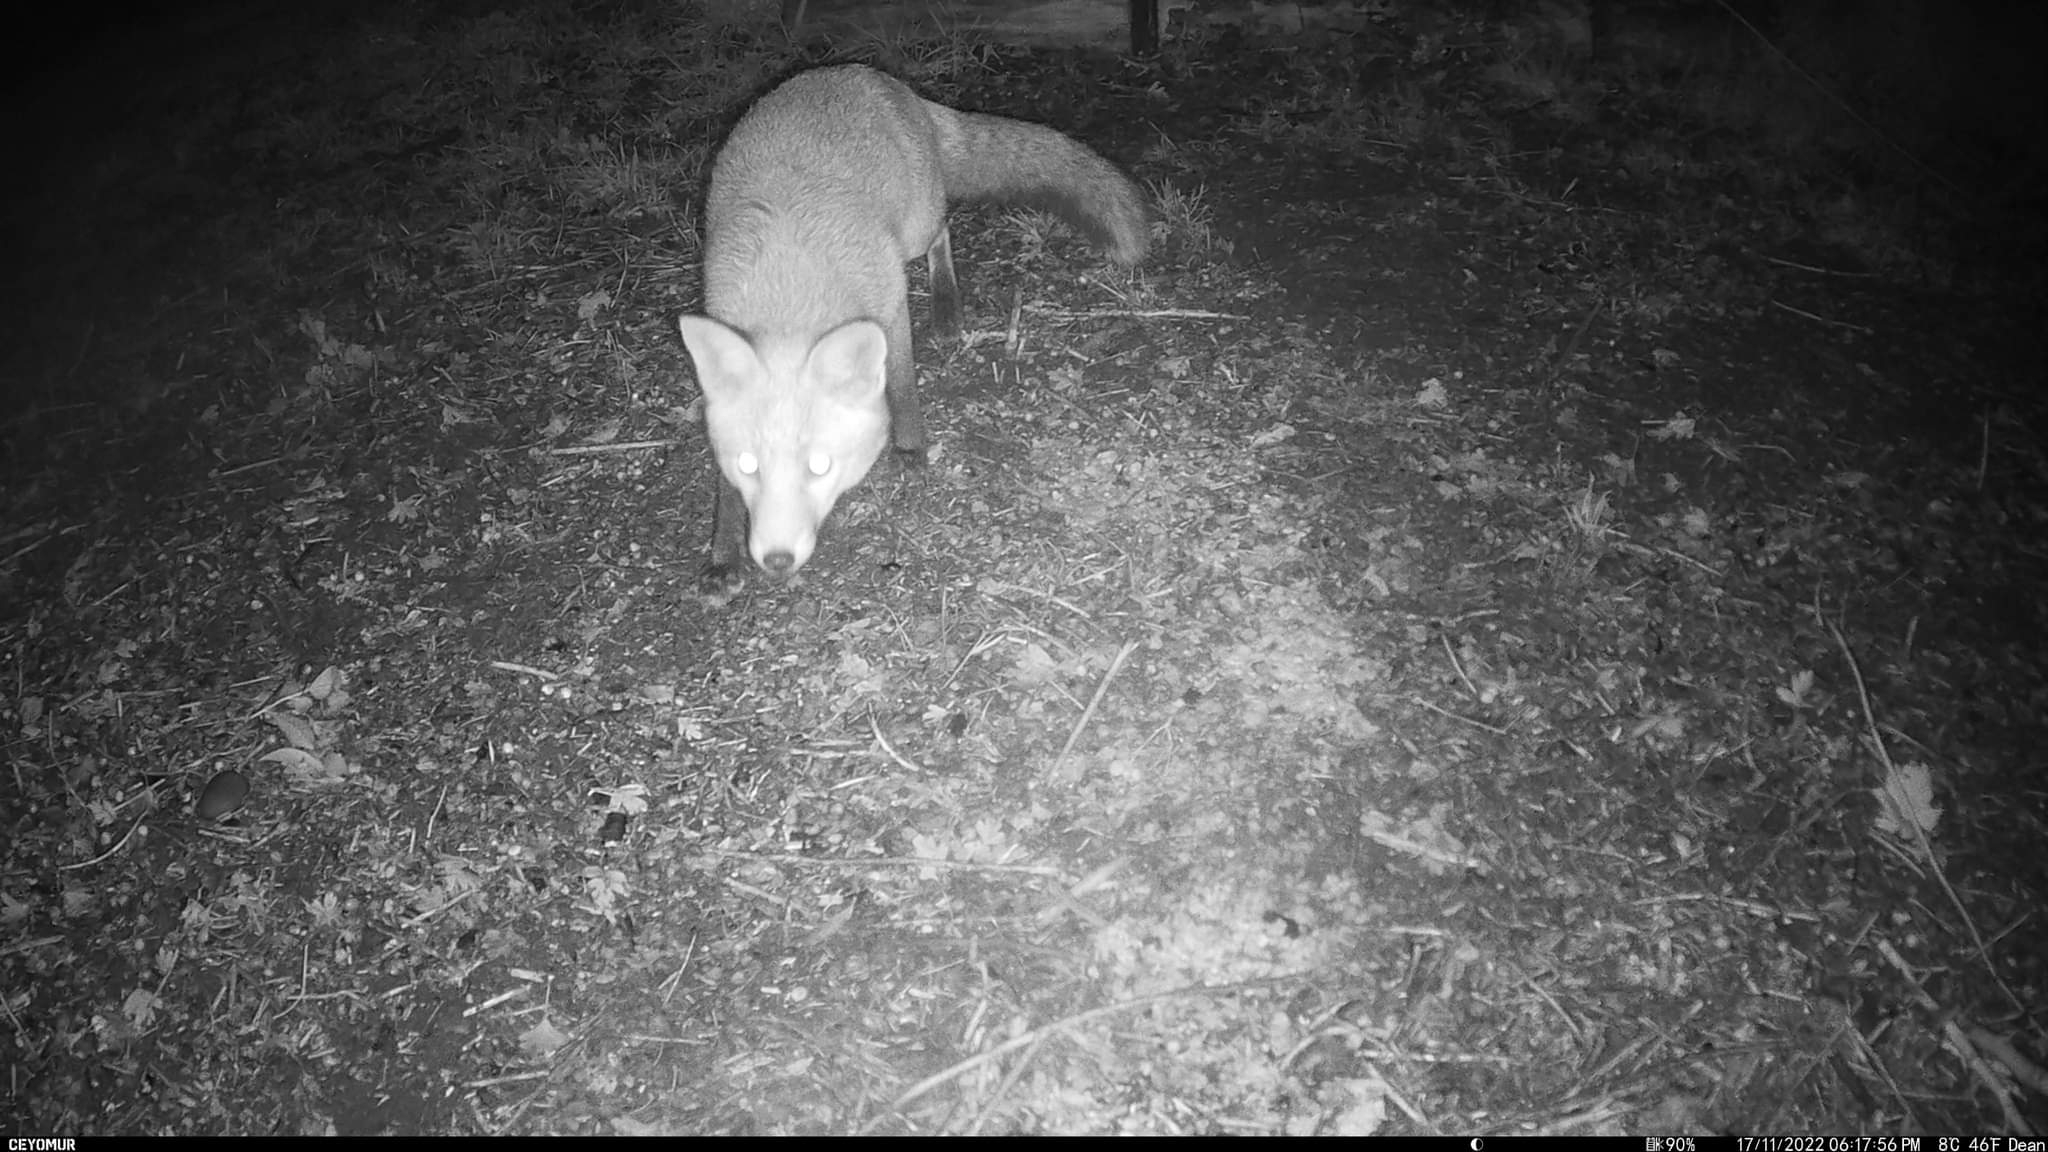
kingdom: Animalia
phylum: Chordata
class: Mammalia
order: Carnivora
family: Canidae
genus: Vulpes
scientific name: Vulpes vulpes
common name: Red fox
